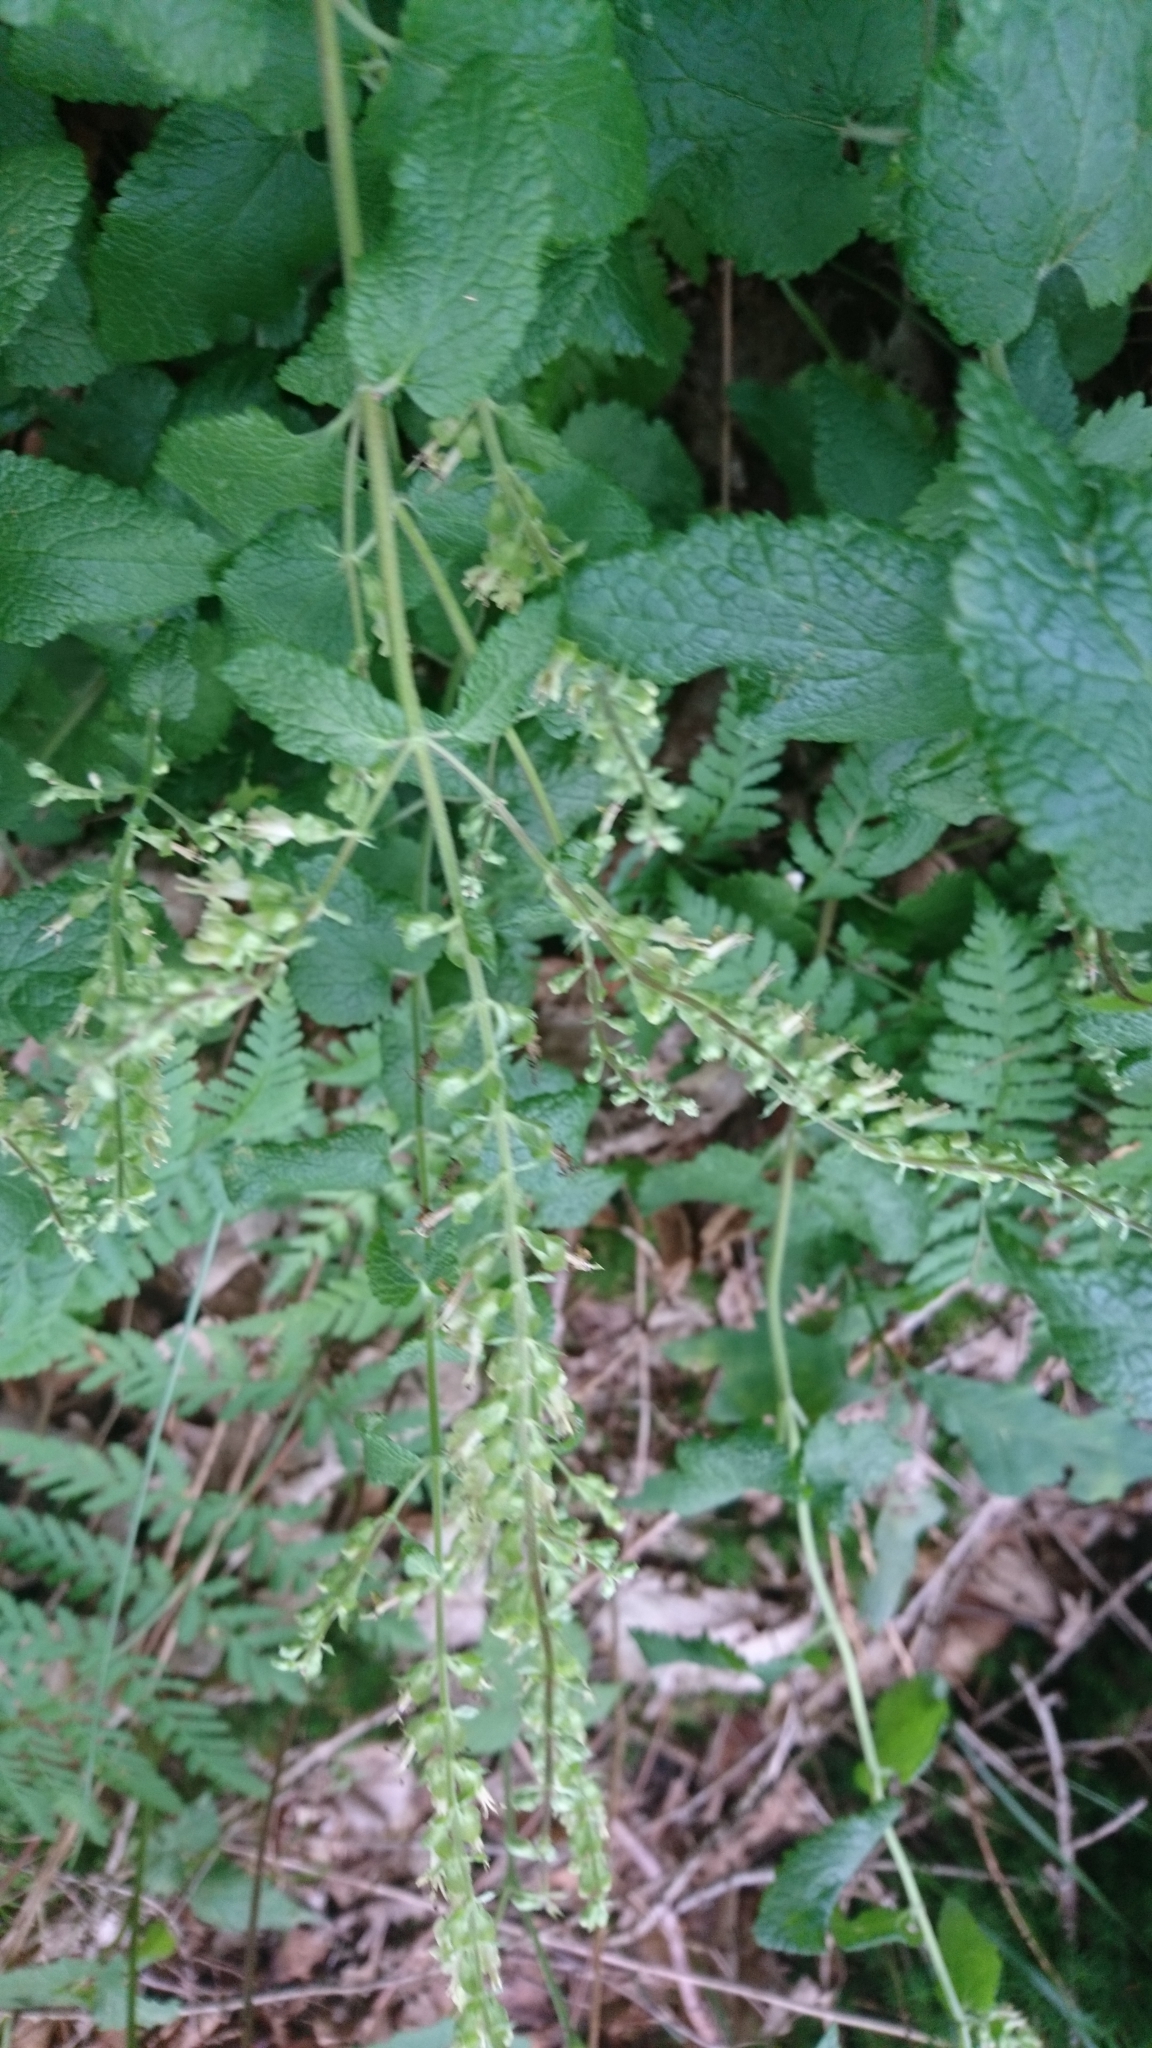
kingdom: Plantae
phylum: Tracheophyta
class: Magnoliopsida
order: Lamiales
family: Lamiaceae
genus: Teucrium
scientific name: Teucrium scorodonia
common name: Woodland germander
